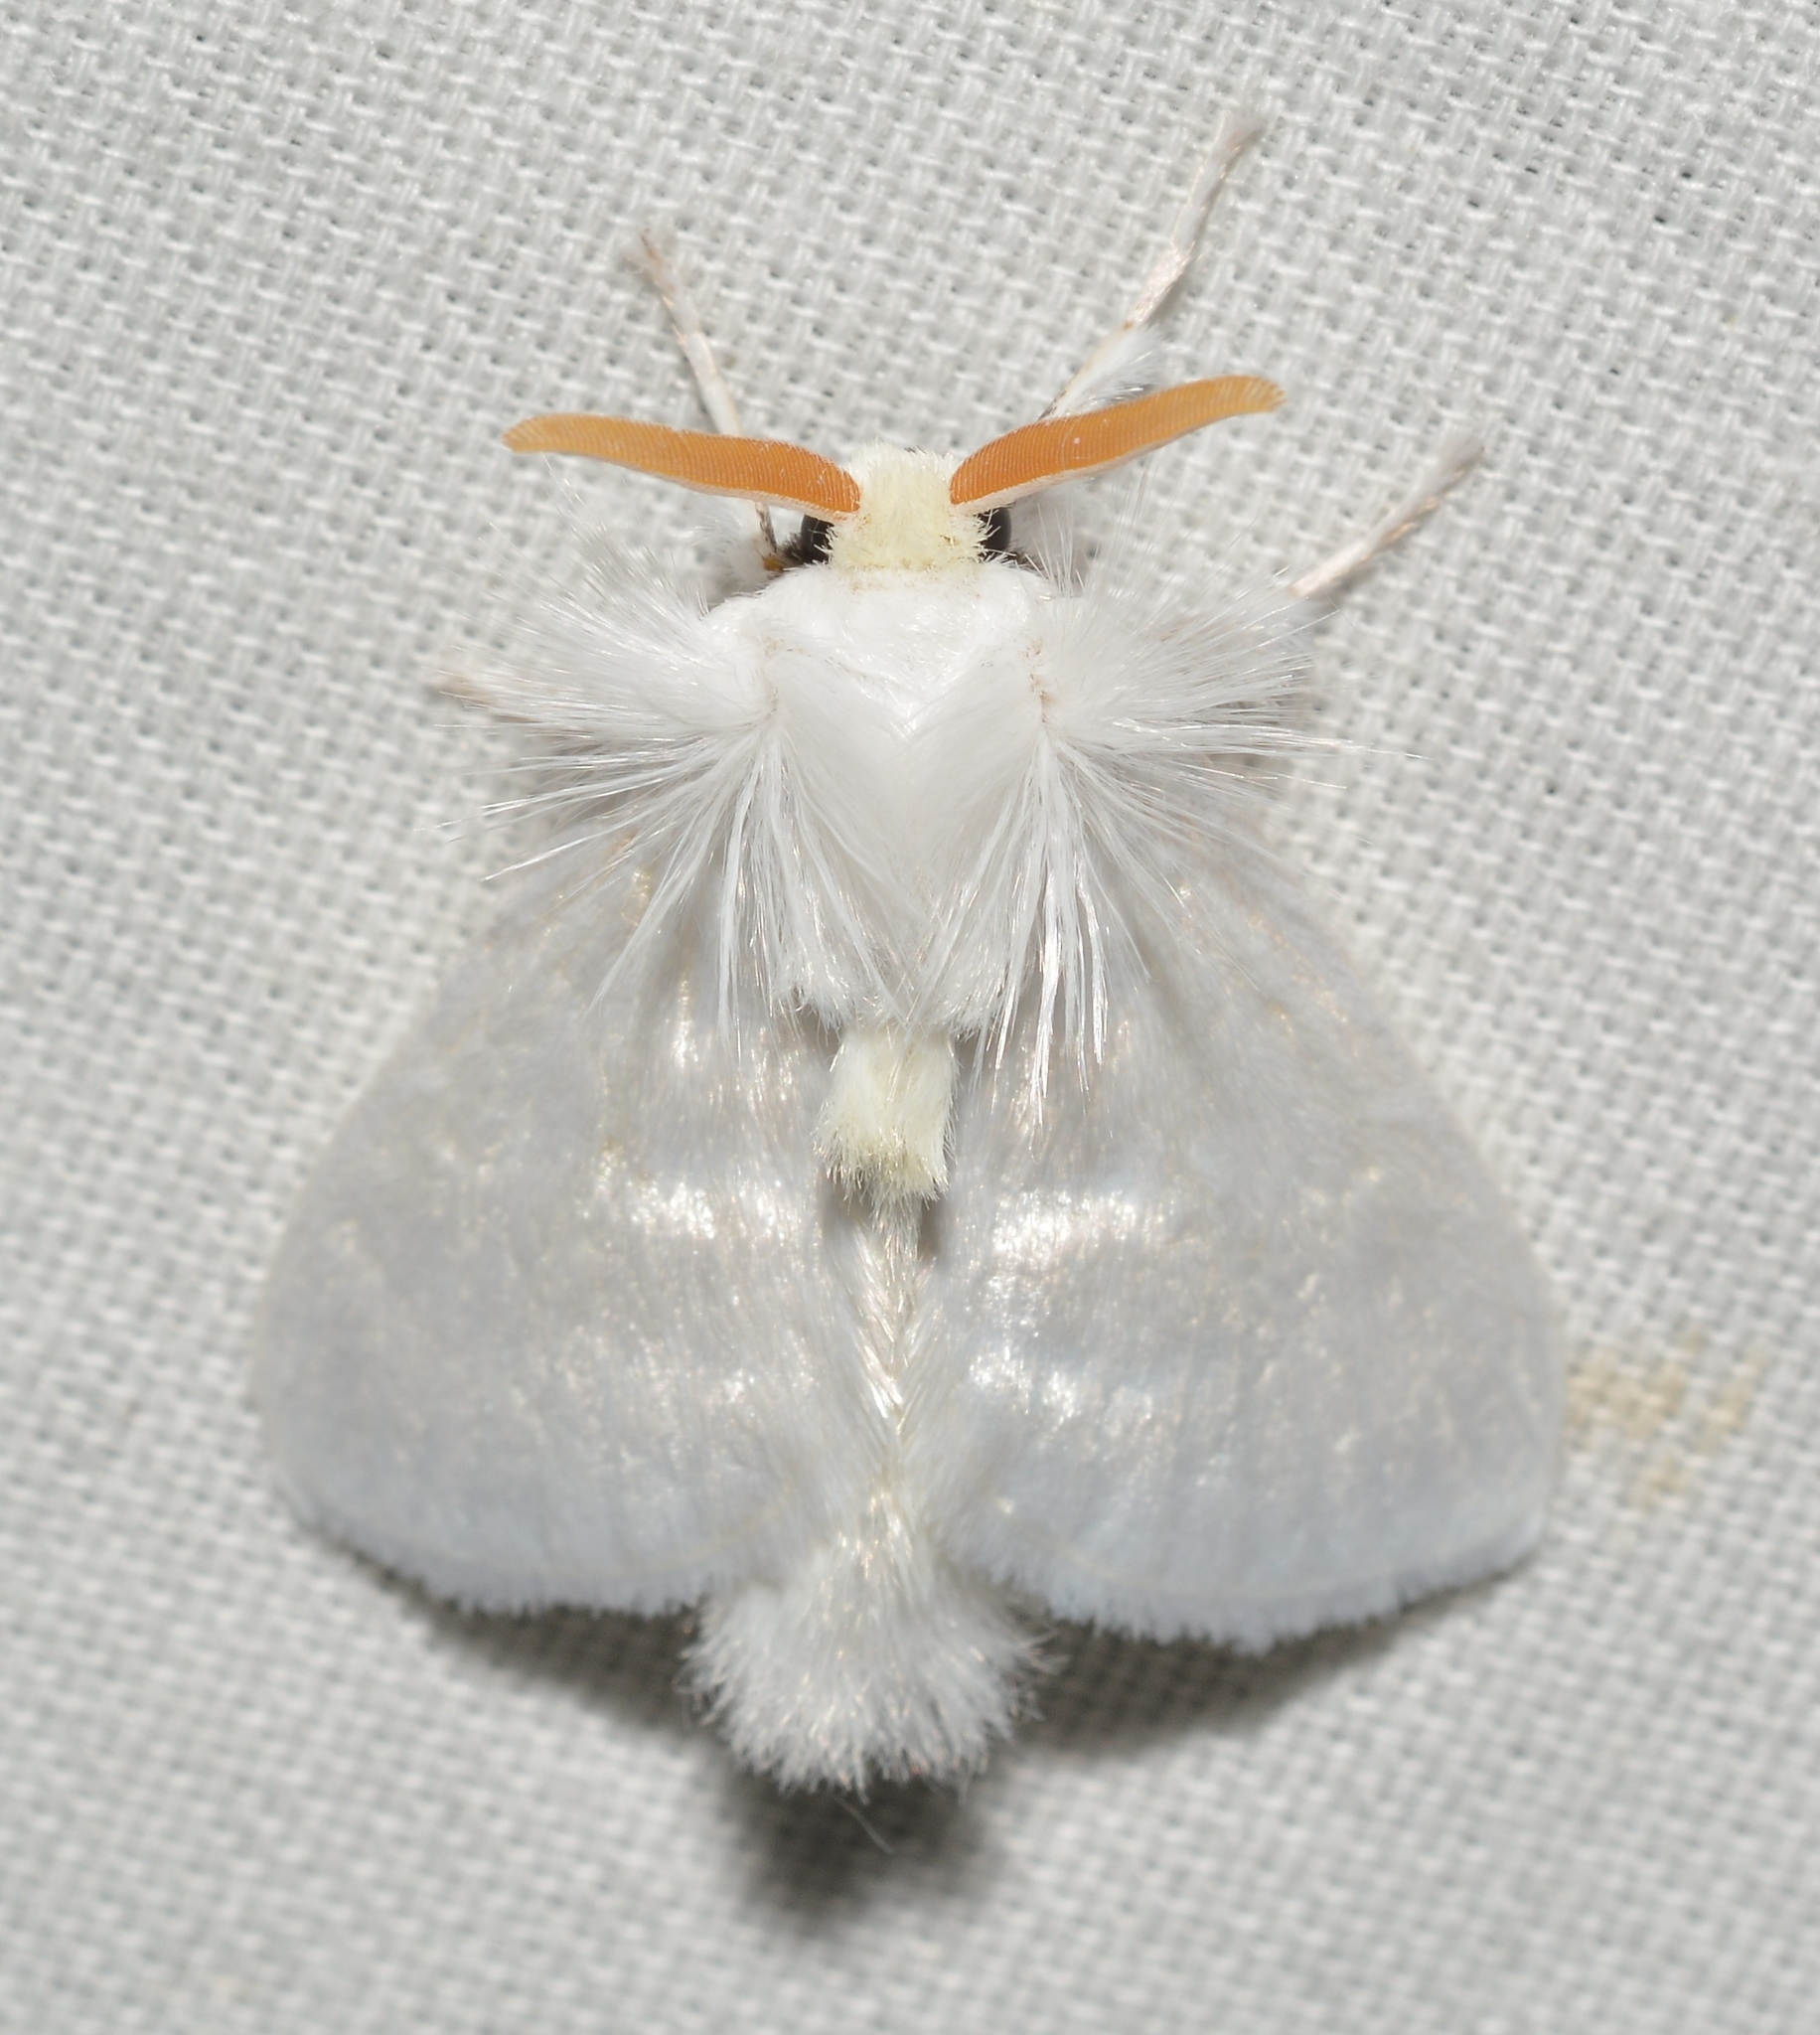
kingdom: Animalia
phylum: Arthropoda
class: Insecta
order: Lepidoptera
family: Megalopygidae
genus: Norape
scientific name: Norape cretata
